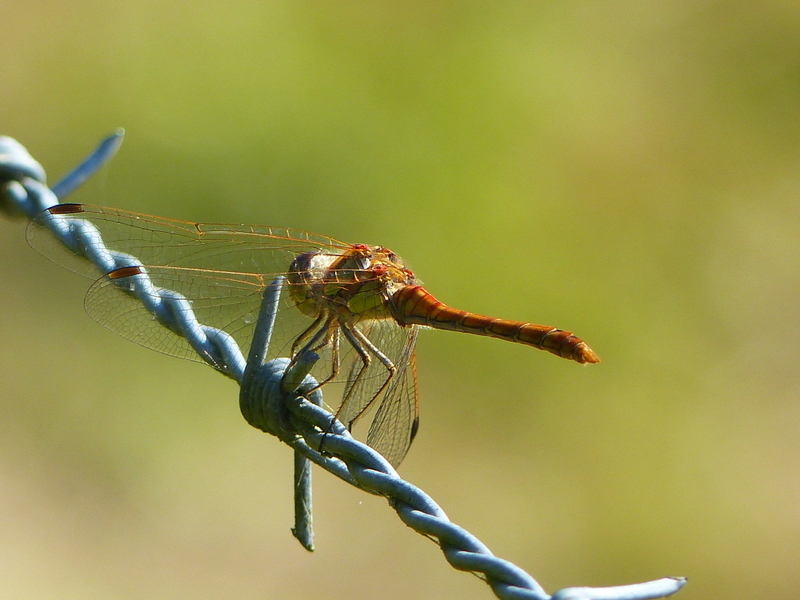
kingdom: Animalia
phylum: Arthropoda
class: Insecta
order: Odonata
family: Libellulidae
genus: Sympetrum
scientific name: Sympetrum striolatum
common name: Common darter
